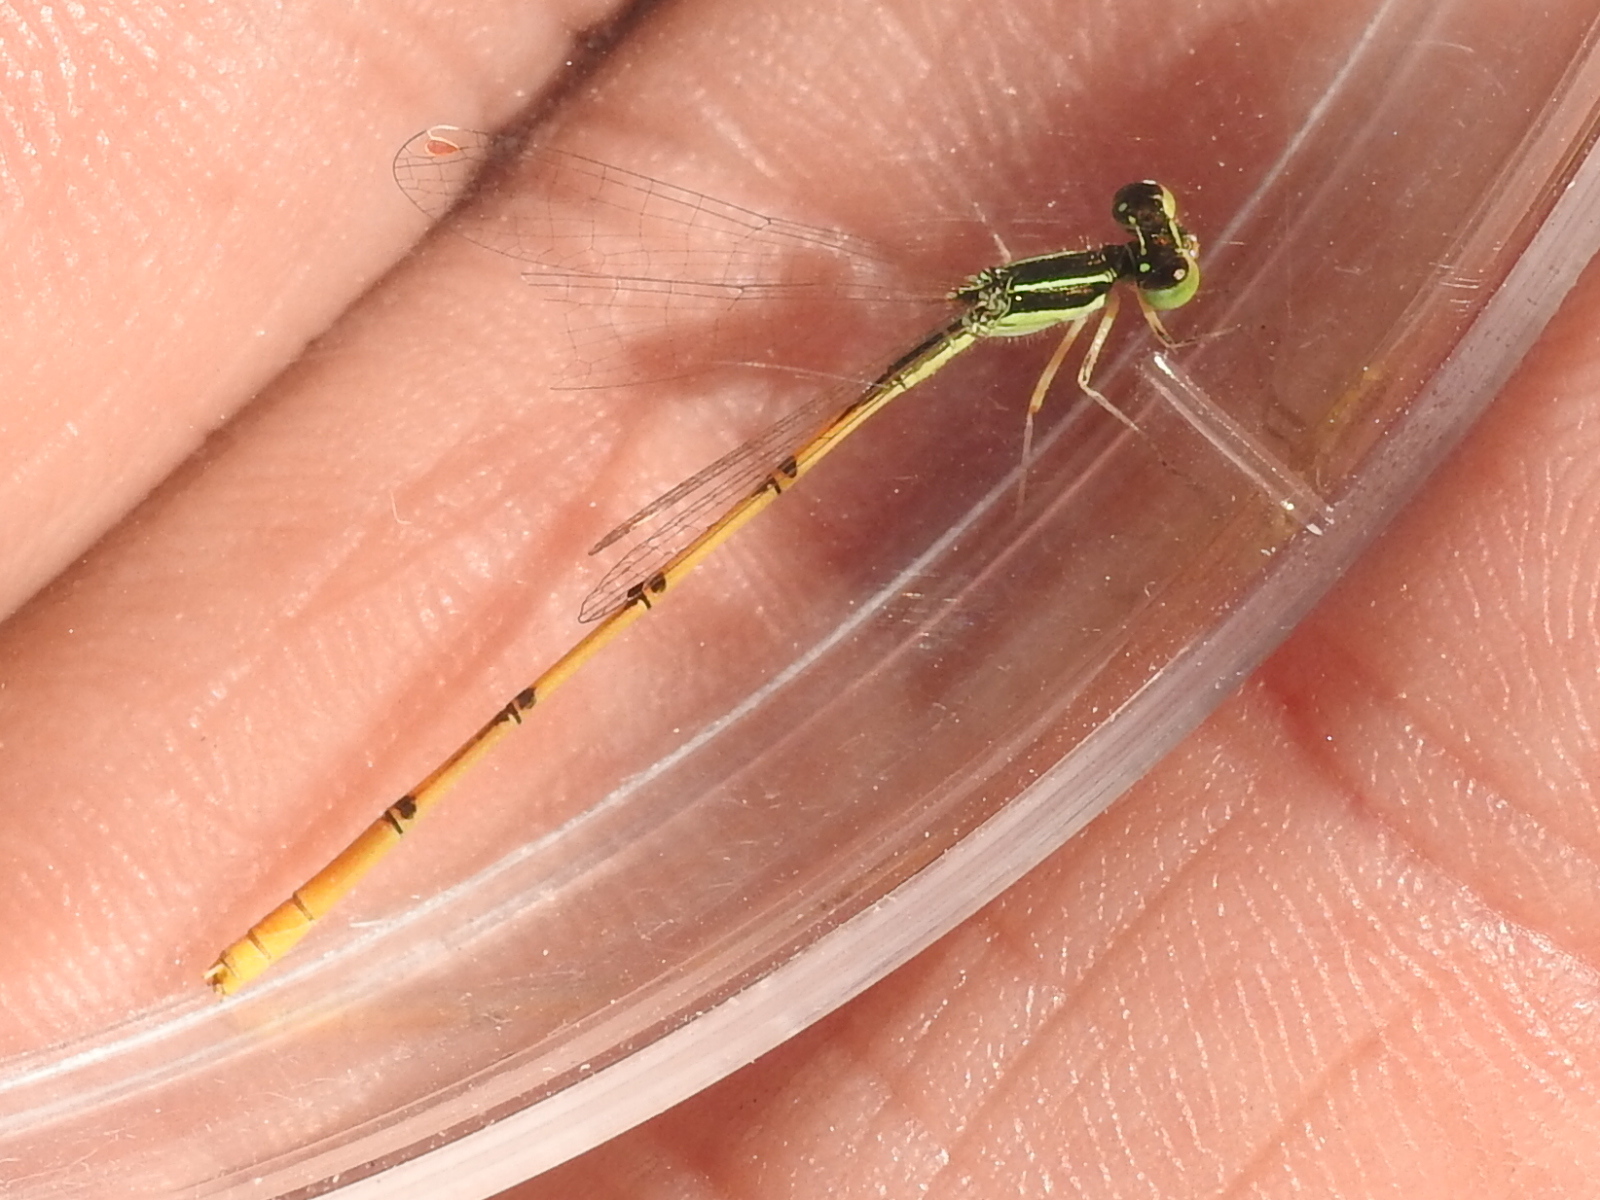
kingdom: Animalia
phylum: Arthropoda
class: Insecta
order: Odonata
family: Coenagrionidae
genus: Ischnura
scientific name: Ischnura hastata
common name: Citrine forktail
